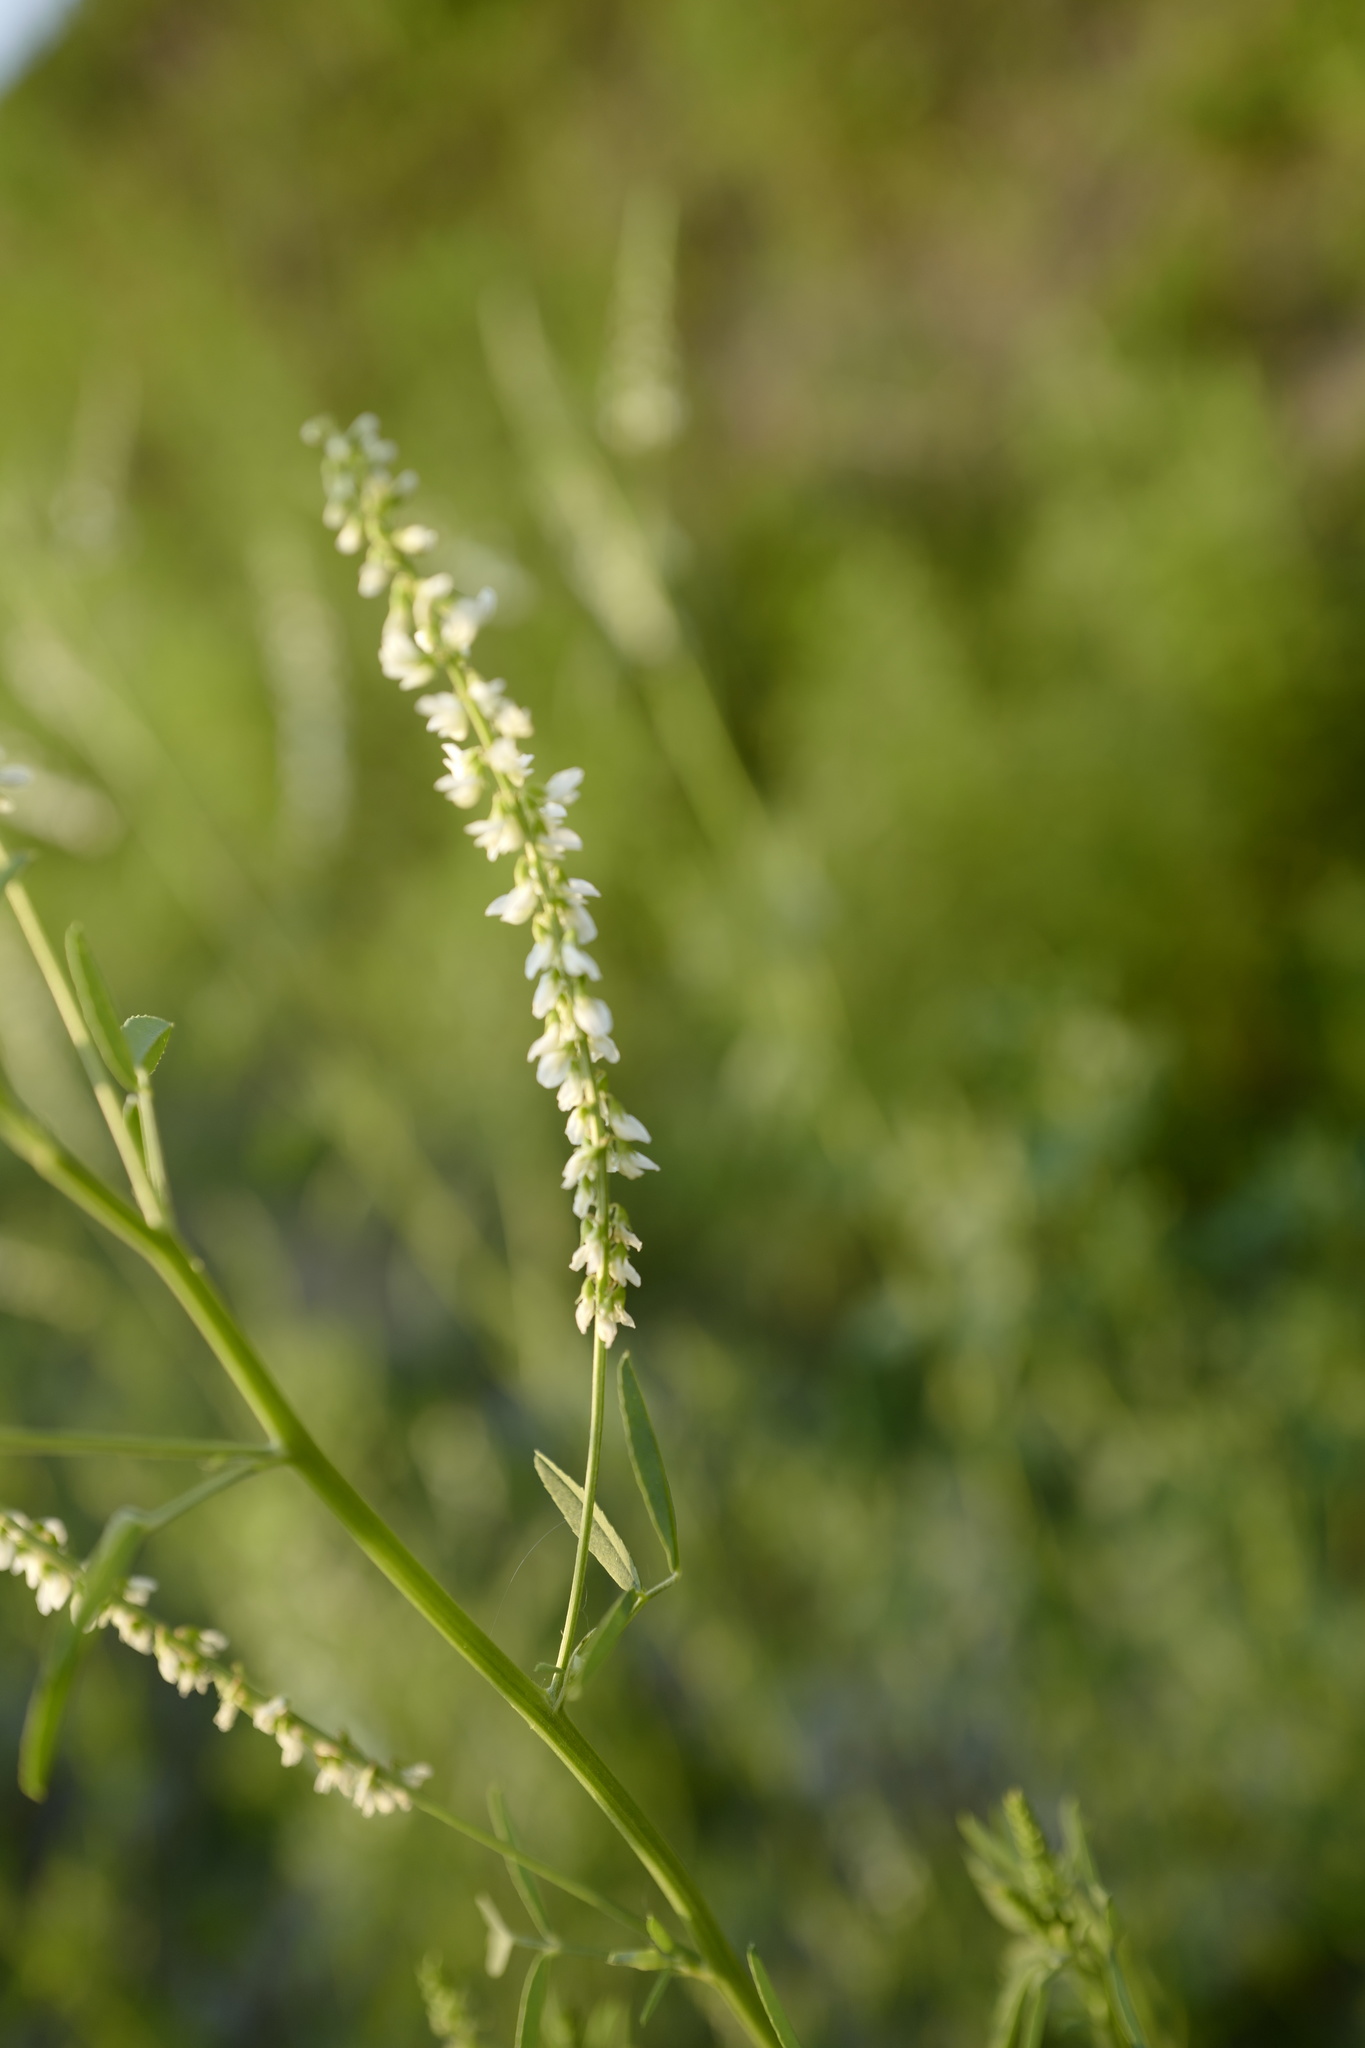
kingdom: Plantae
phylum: Tracheophyta
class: Magnoliopsida
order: Fabales
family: Fabaceae
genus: Melilotus
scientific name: Melilotus albus
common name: White melilot
